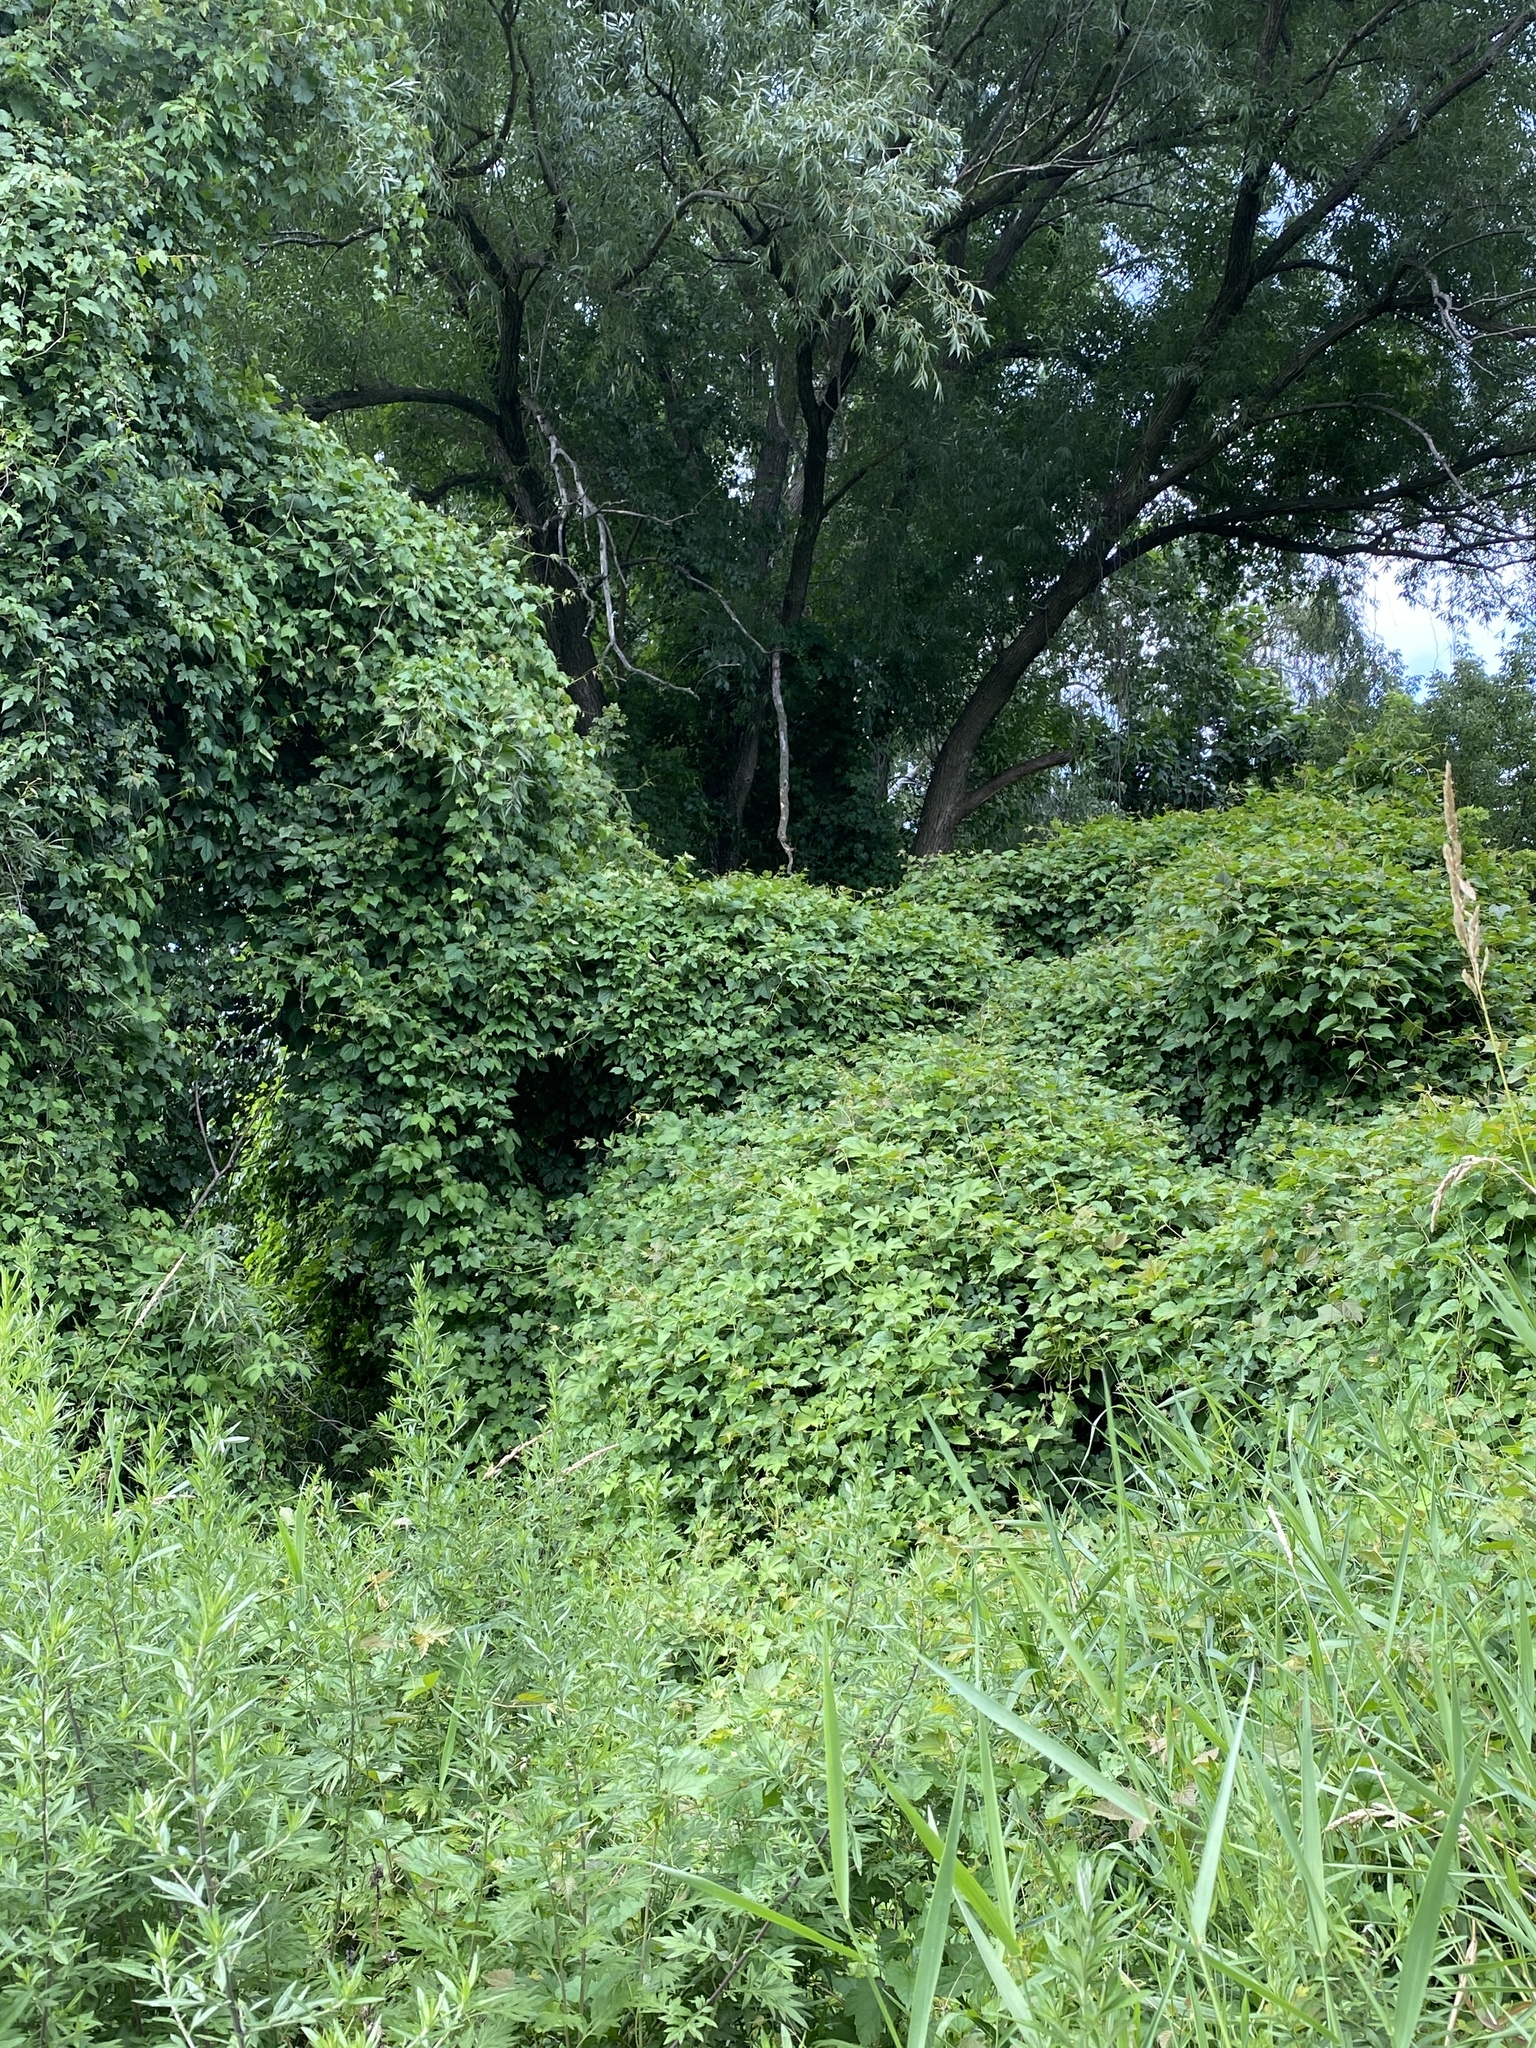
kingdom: Plantae
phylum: Tracheophyta
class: Magnoliopsida
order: Vitales
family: Vitaceae
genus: Ampelopsis
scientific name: Ampelopsis glandulosa
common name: Amur peppervine
